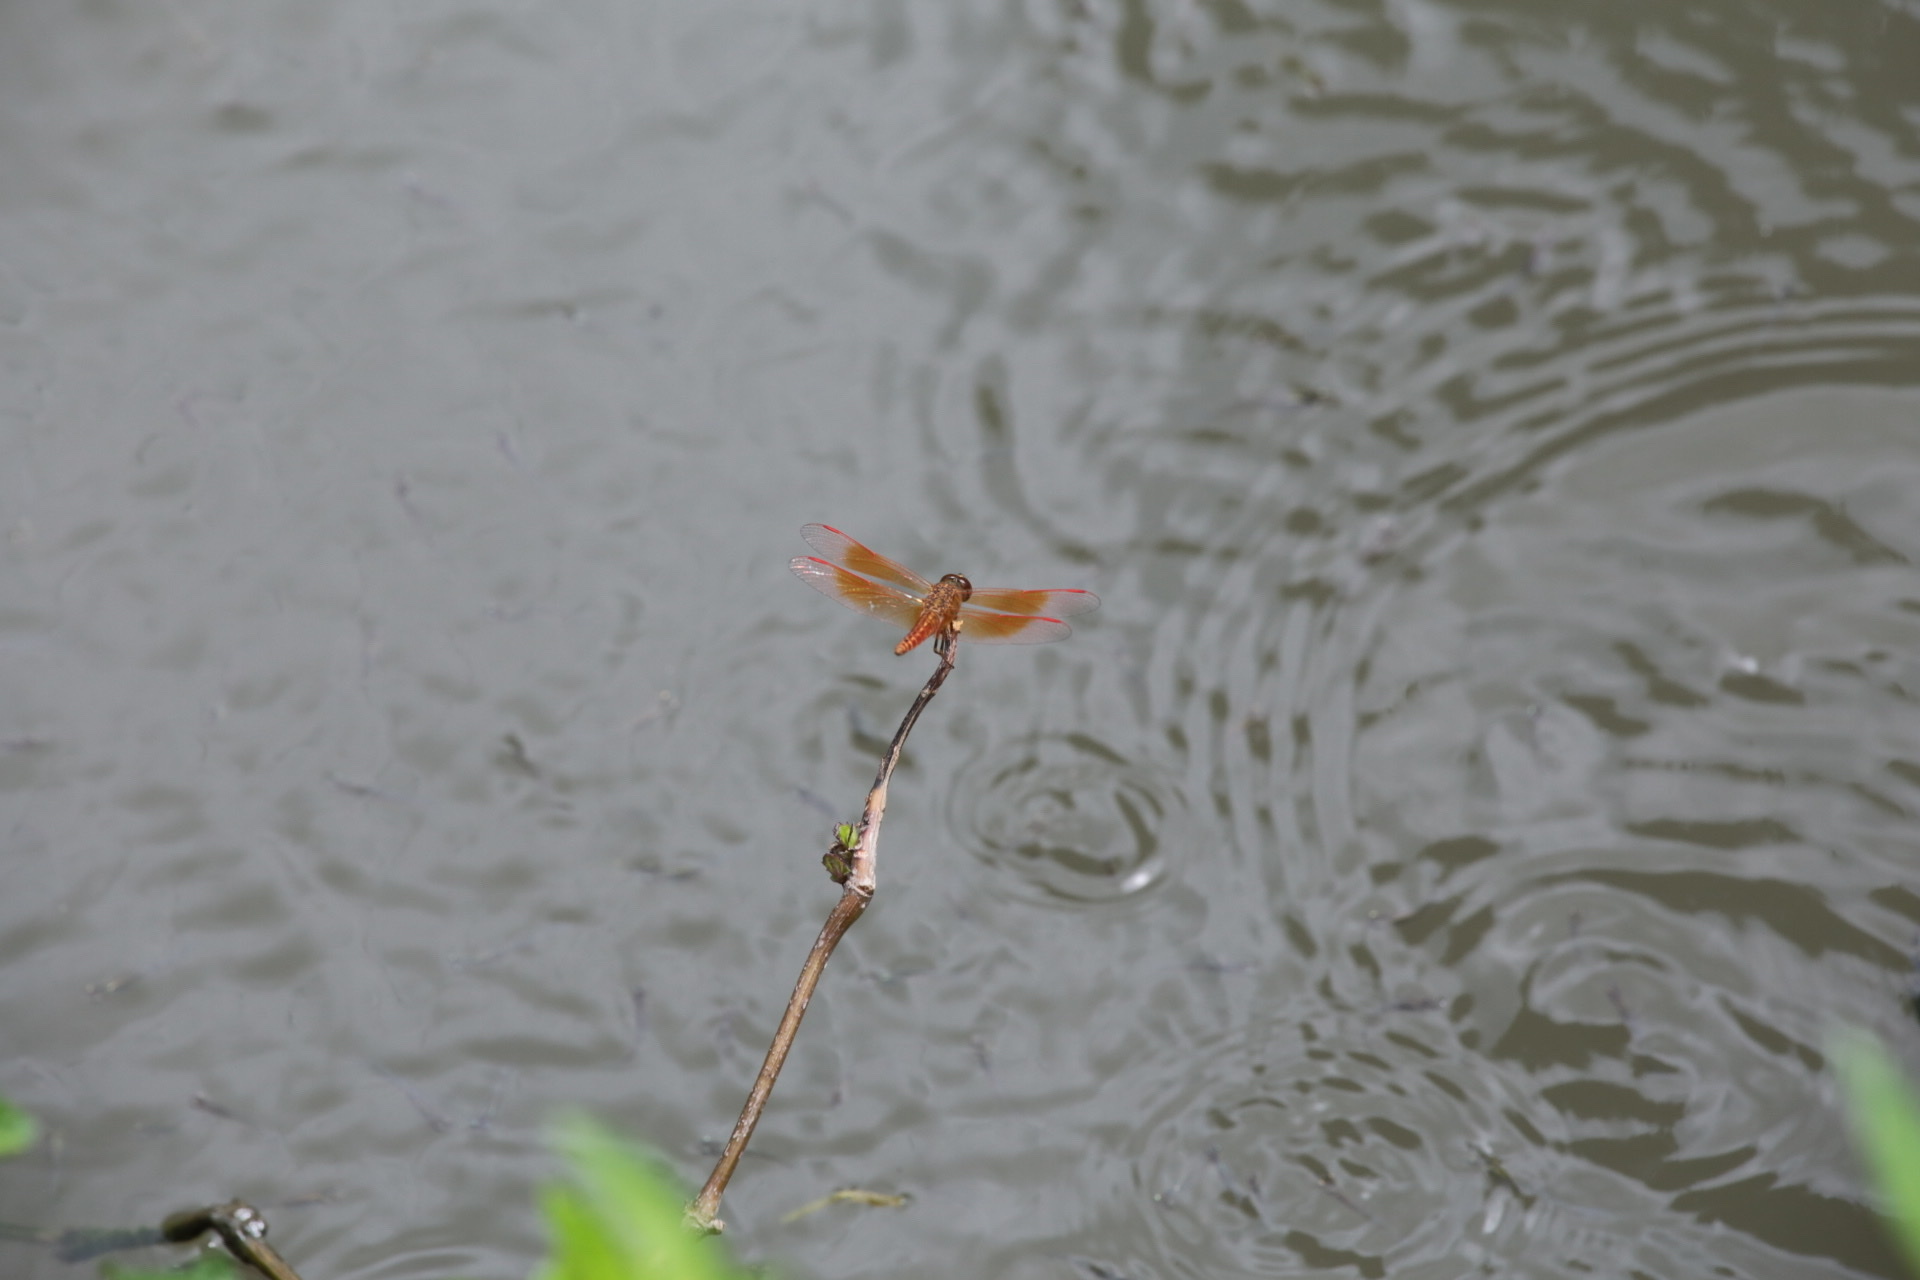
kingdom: Animalia
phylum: Arthropoda
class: Insecta
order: Odonata
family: Libellulidae
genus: Brachythemis
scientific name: Brachythemis contaminata
